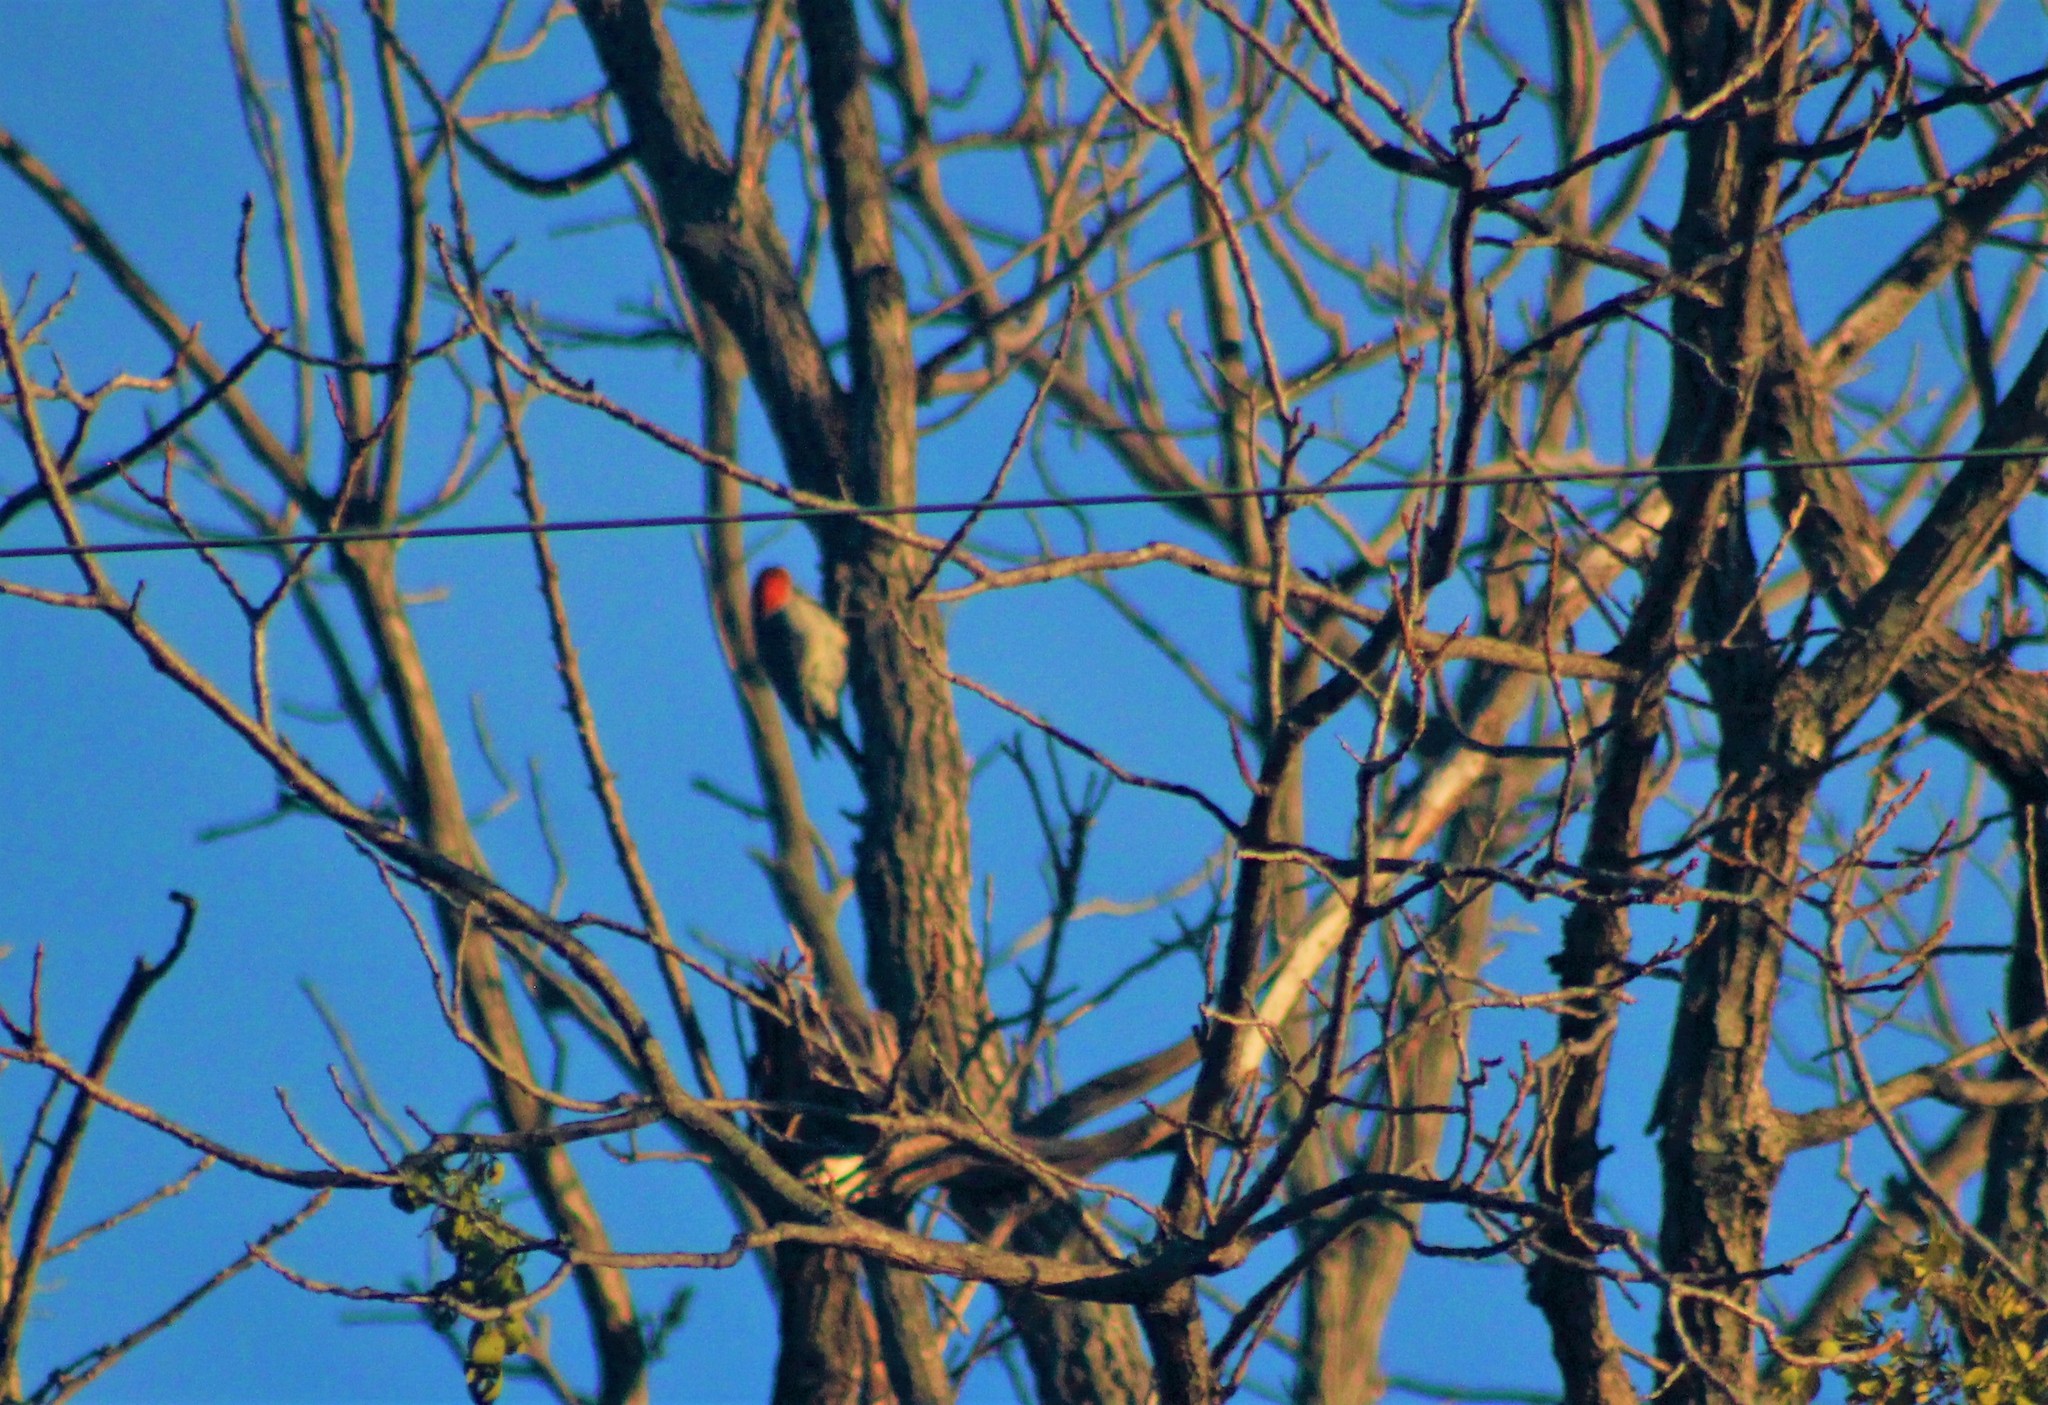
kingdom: Animalia
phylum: Chordata
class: Aves
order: Piciformes
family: Picidae
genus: Melanerpes
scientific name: Melanerpes carolinus
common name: Red-bellied woodpecker
